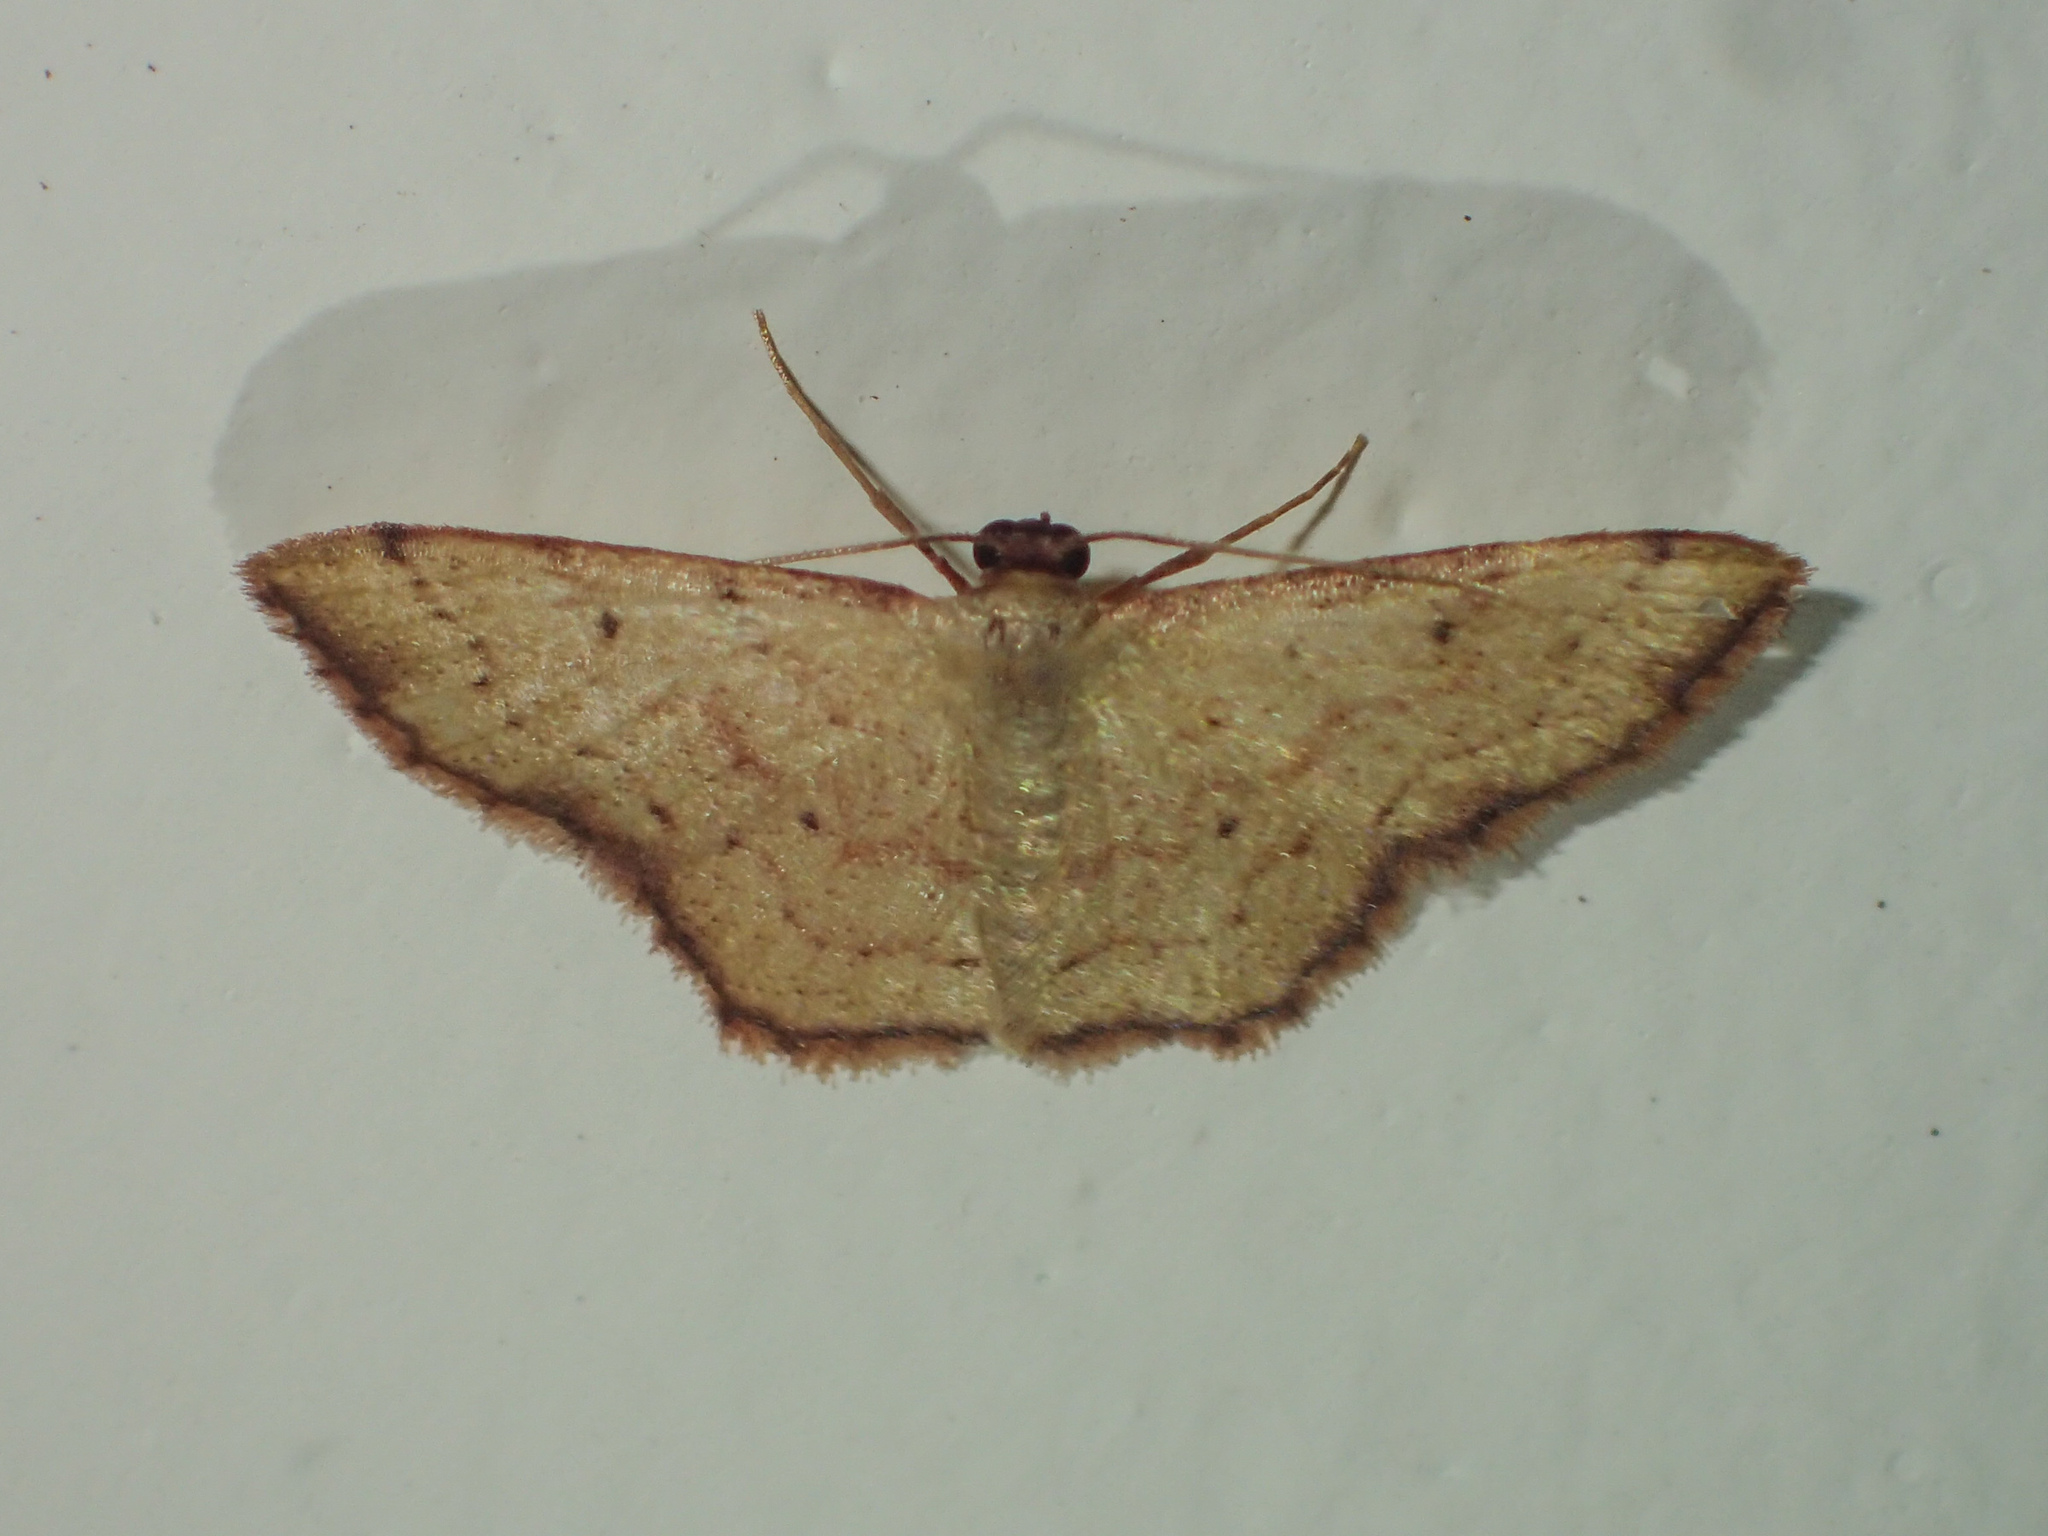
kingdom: Animalia
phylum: Arthropoda
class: Insecta
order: Lepidoptera
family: Geometridae
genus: Idaea
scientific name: Idaea craspedota
